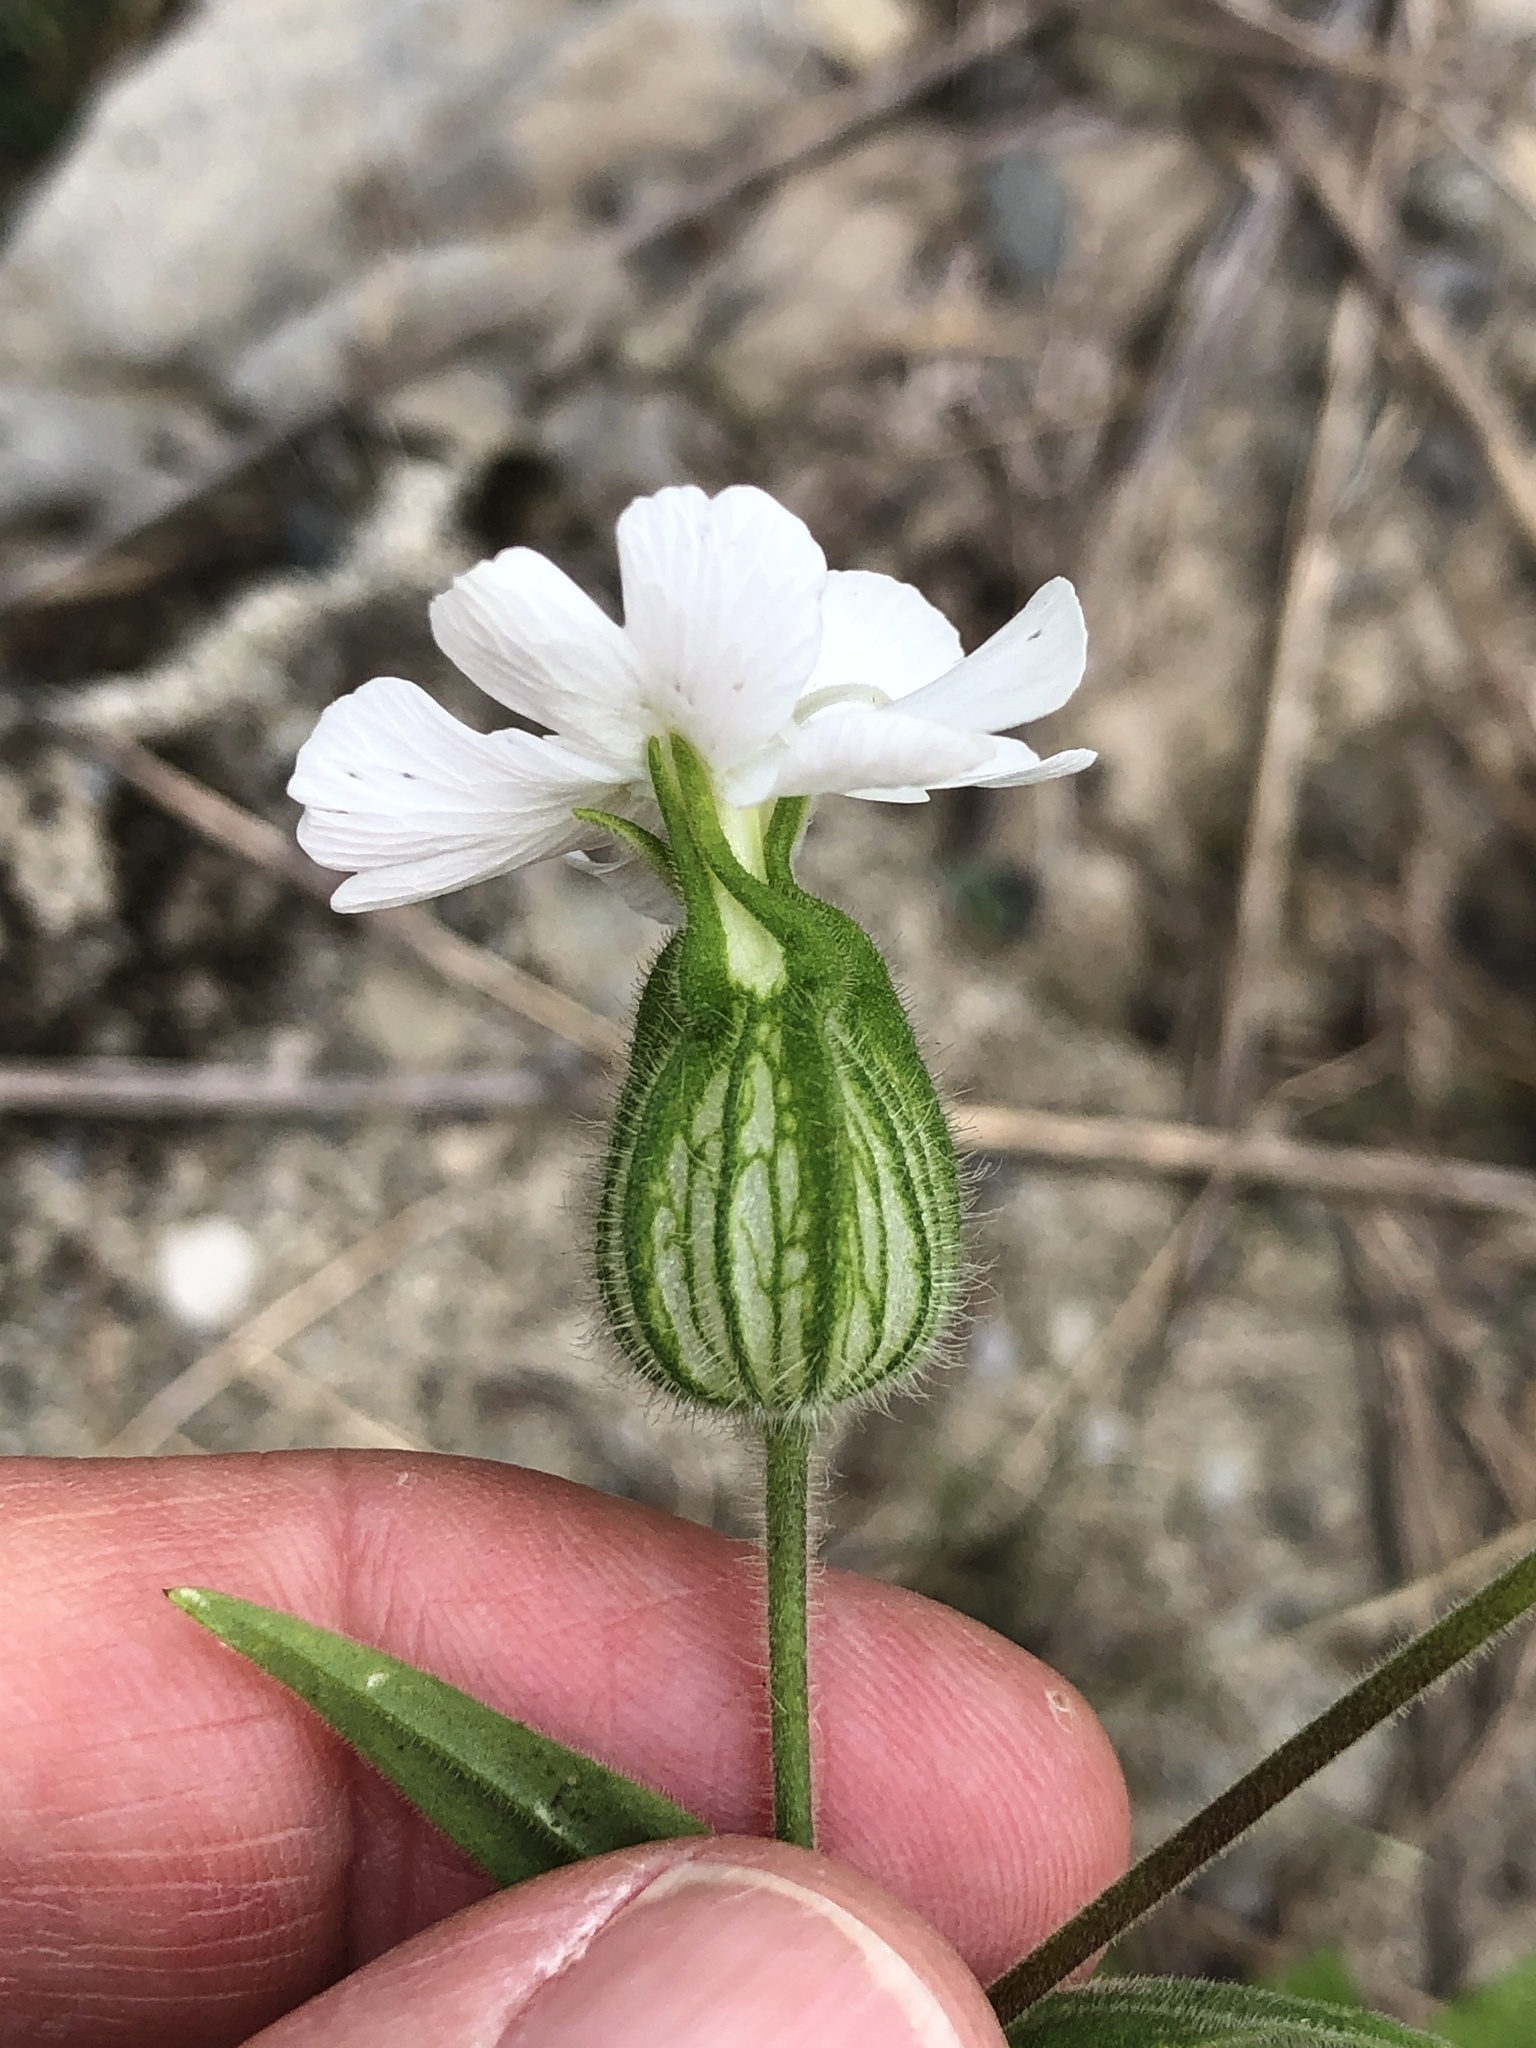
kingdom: Plantae
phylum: Tracheophyta
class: Magnoliopsida
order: Caryophyllales
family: Caryophyllaceae
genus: Silene
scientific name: Silene latifolia
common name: White campion
